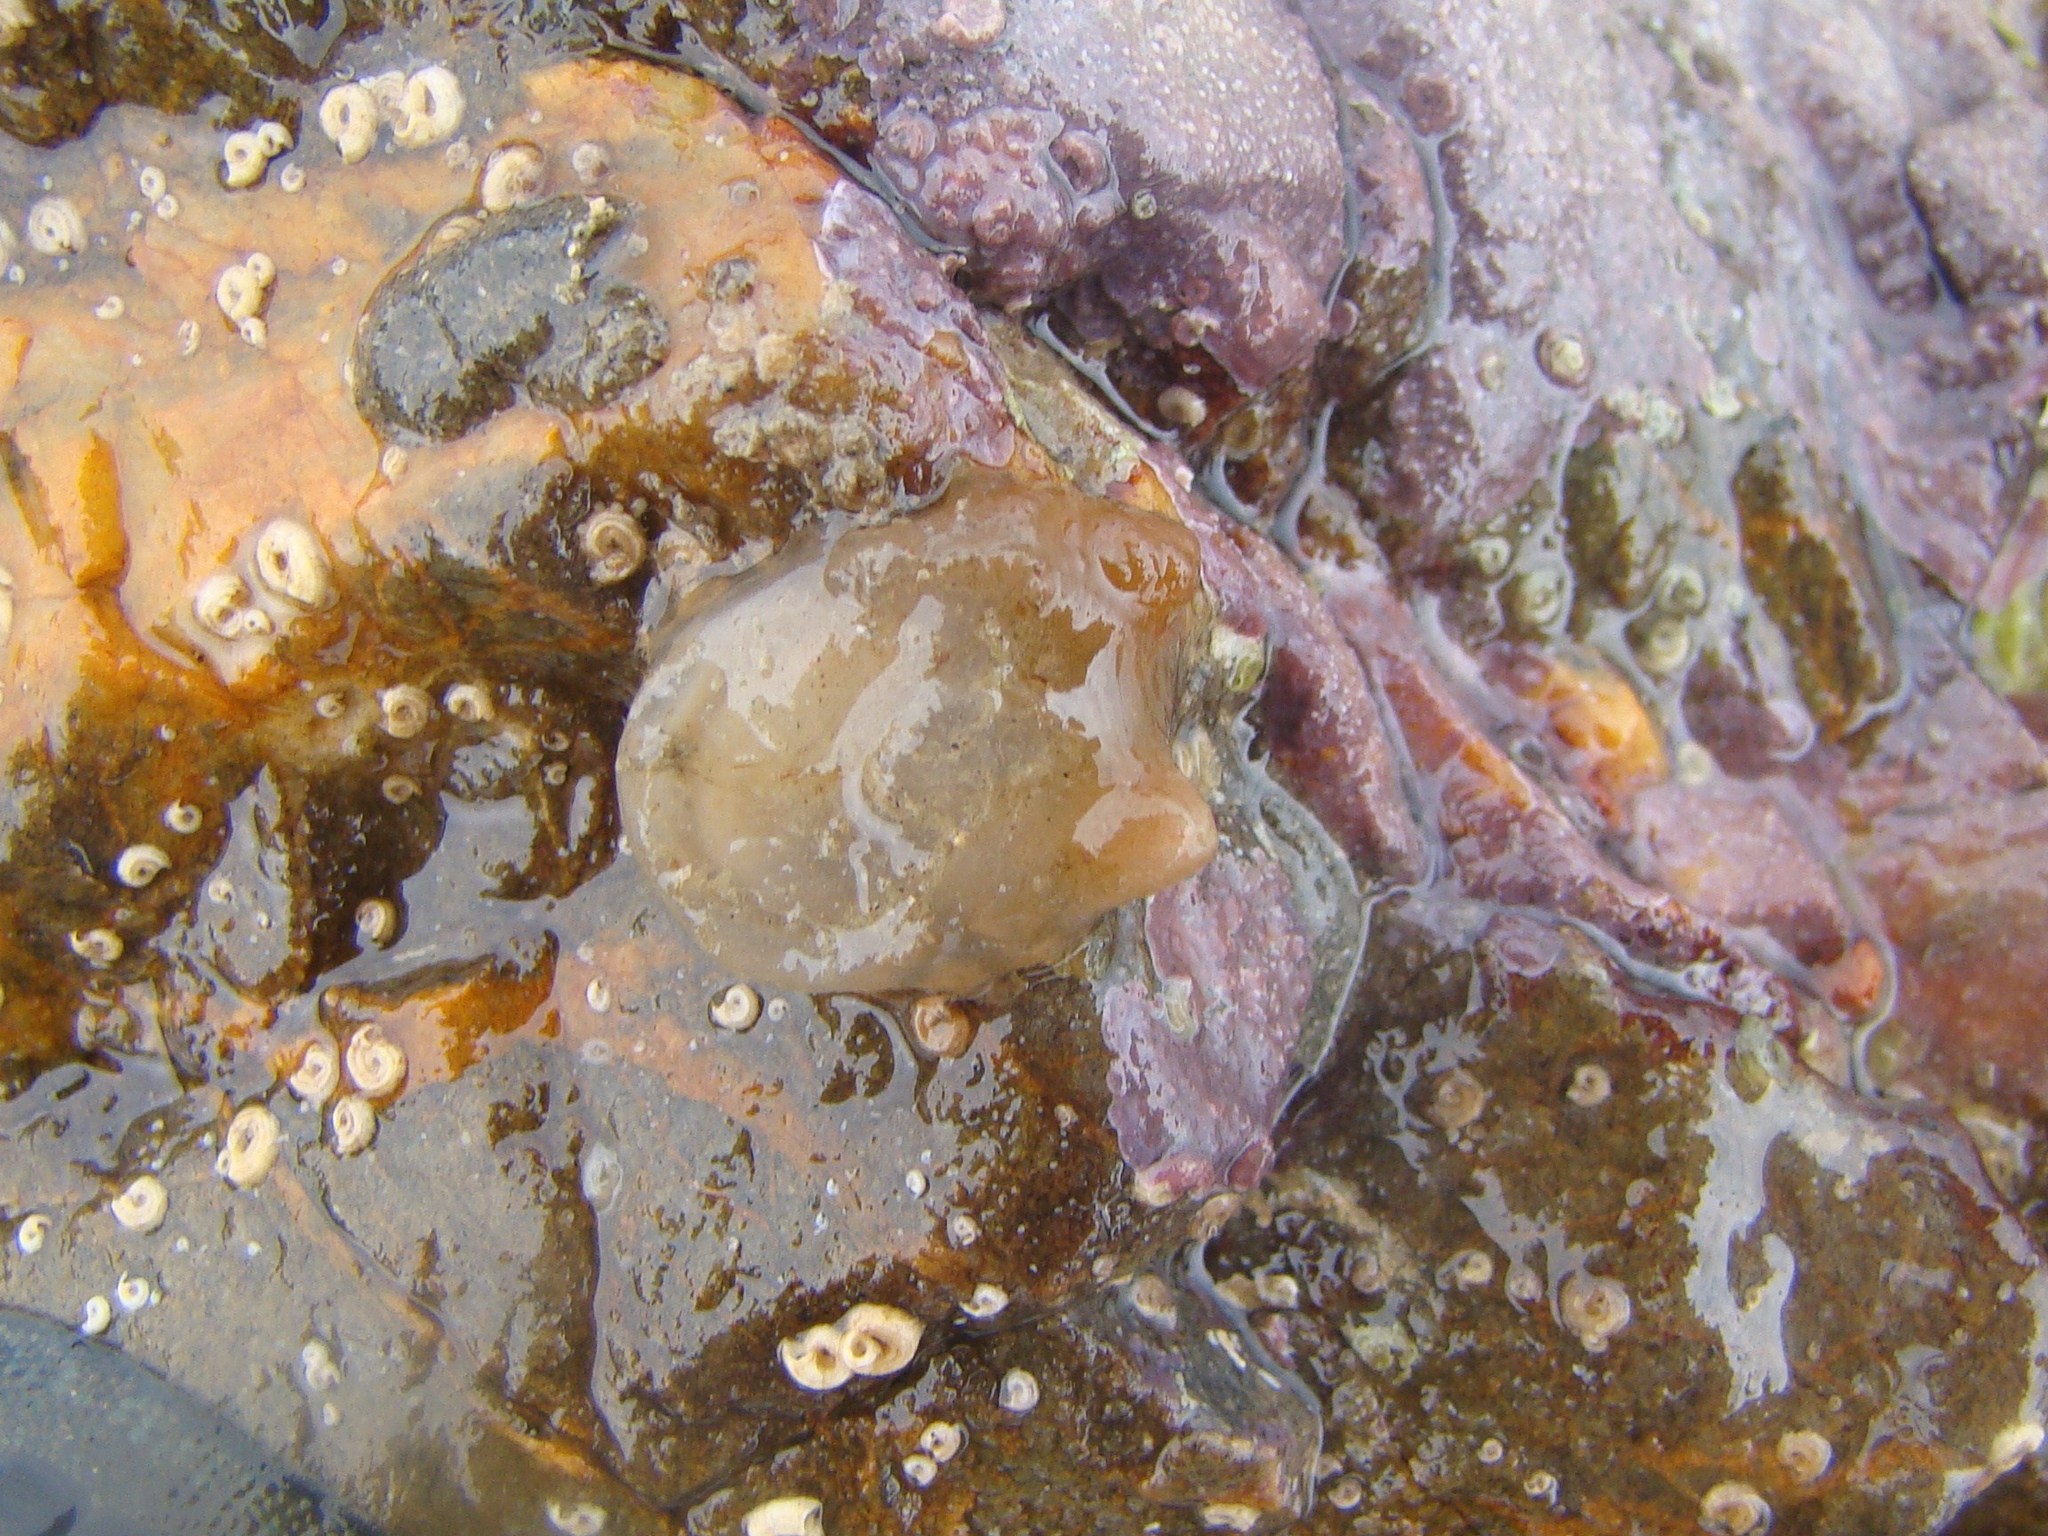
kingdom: Animalia
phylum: Chordata
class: Ascidiacea
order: Phlebobranchia
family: Corellidae
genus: Corella
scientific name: Corella eumyota
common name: Orange-tipped sea squirt
